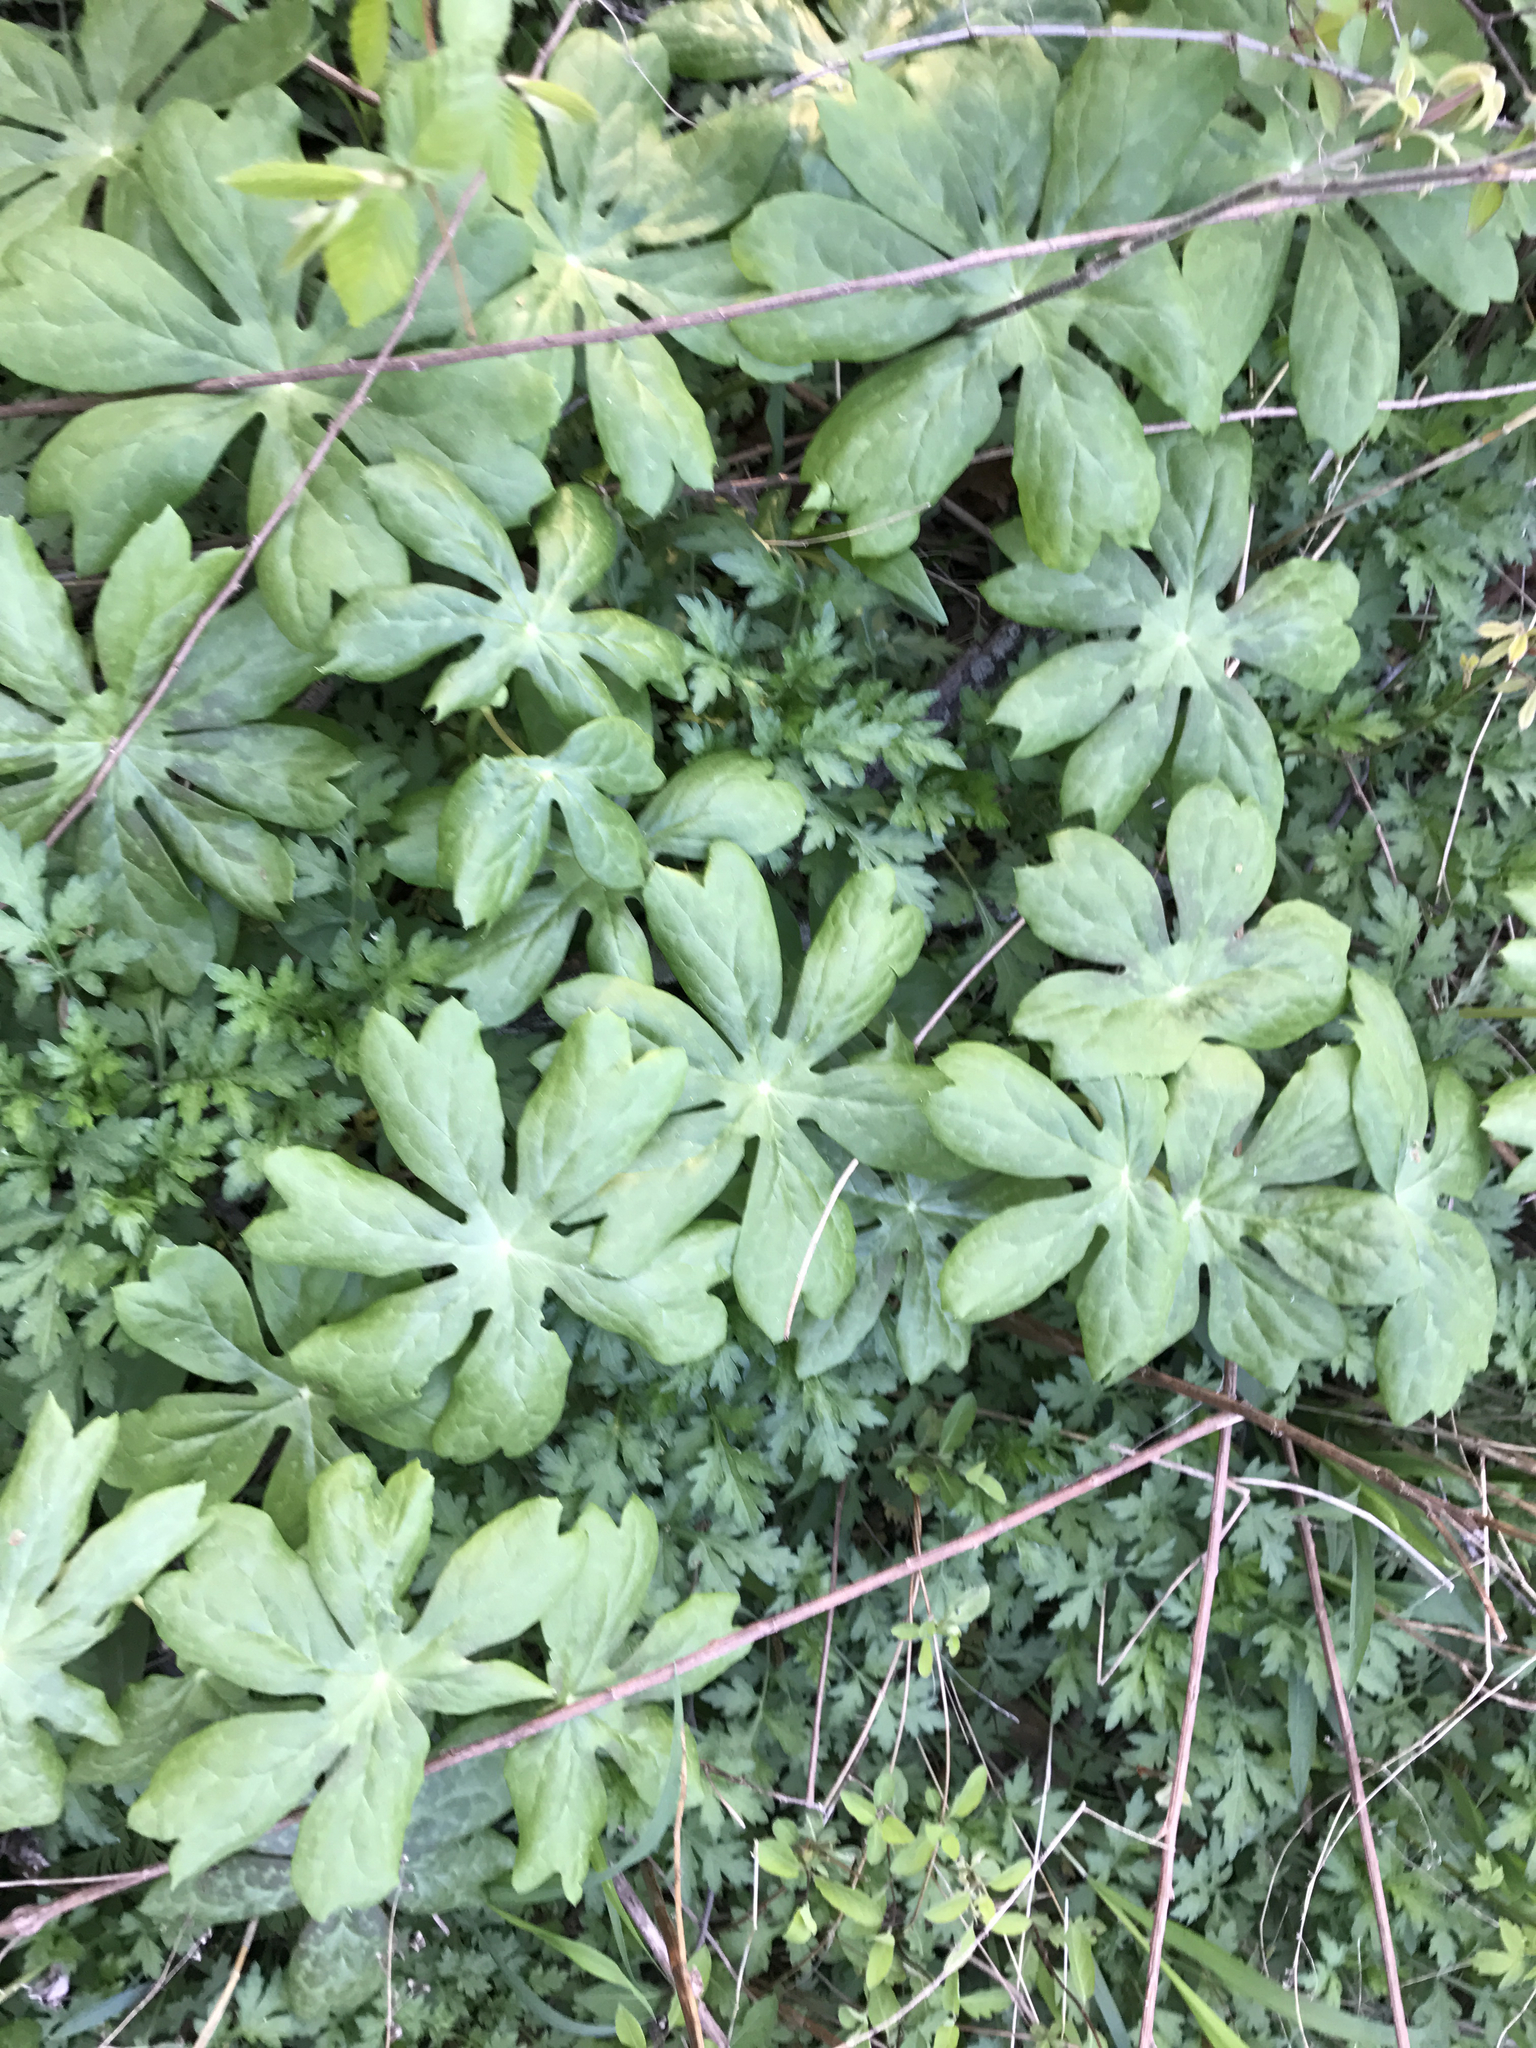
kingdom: Plantae
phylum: Tracheophyta
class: Magnoliopsida
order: Ranunculales
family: Berberidaceae
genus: Podophyllum
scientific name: Podophyllum peltatum
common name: Wild mandrake
